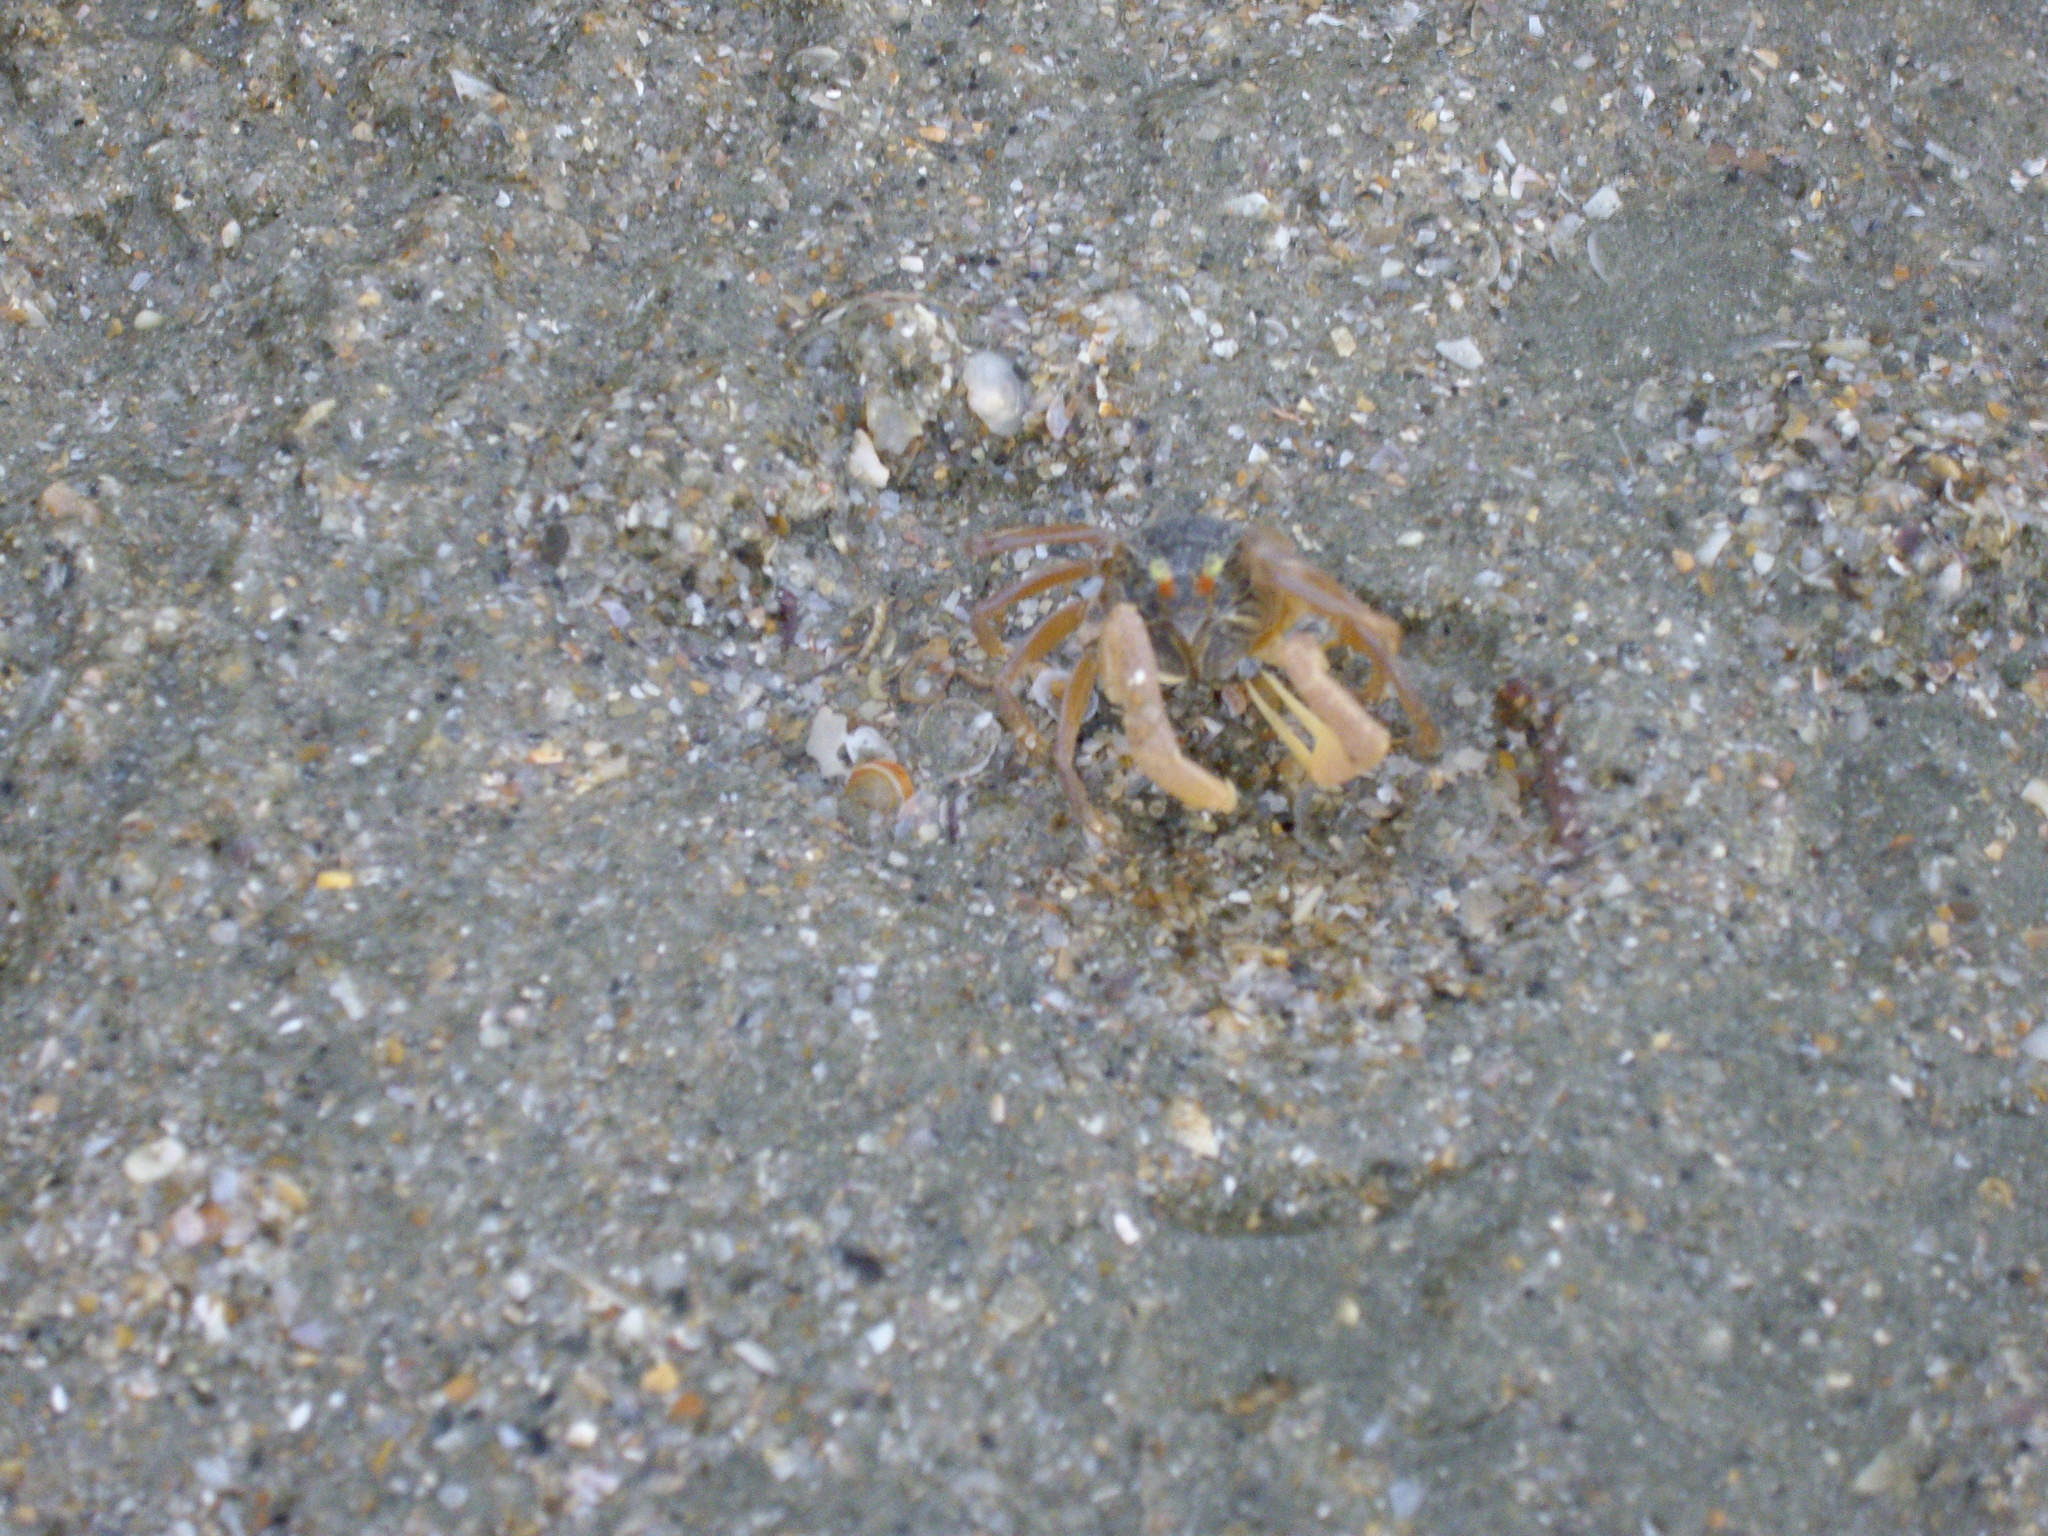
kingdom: Animalia
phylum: Arthropoda
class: Malacostraca
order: Decapoda
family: Dotillidae
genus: Dotilla
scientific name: Dotilla myctiroides
